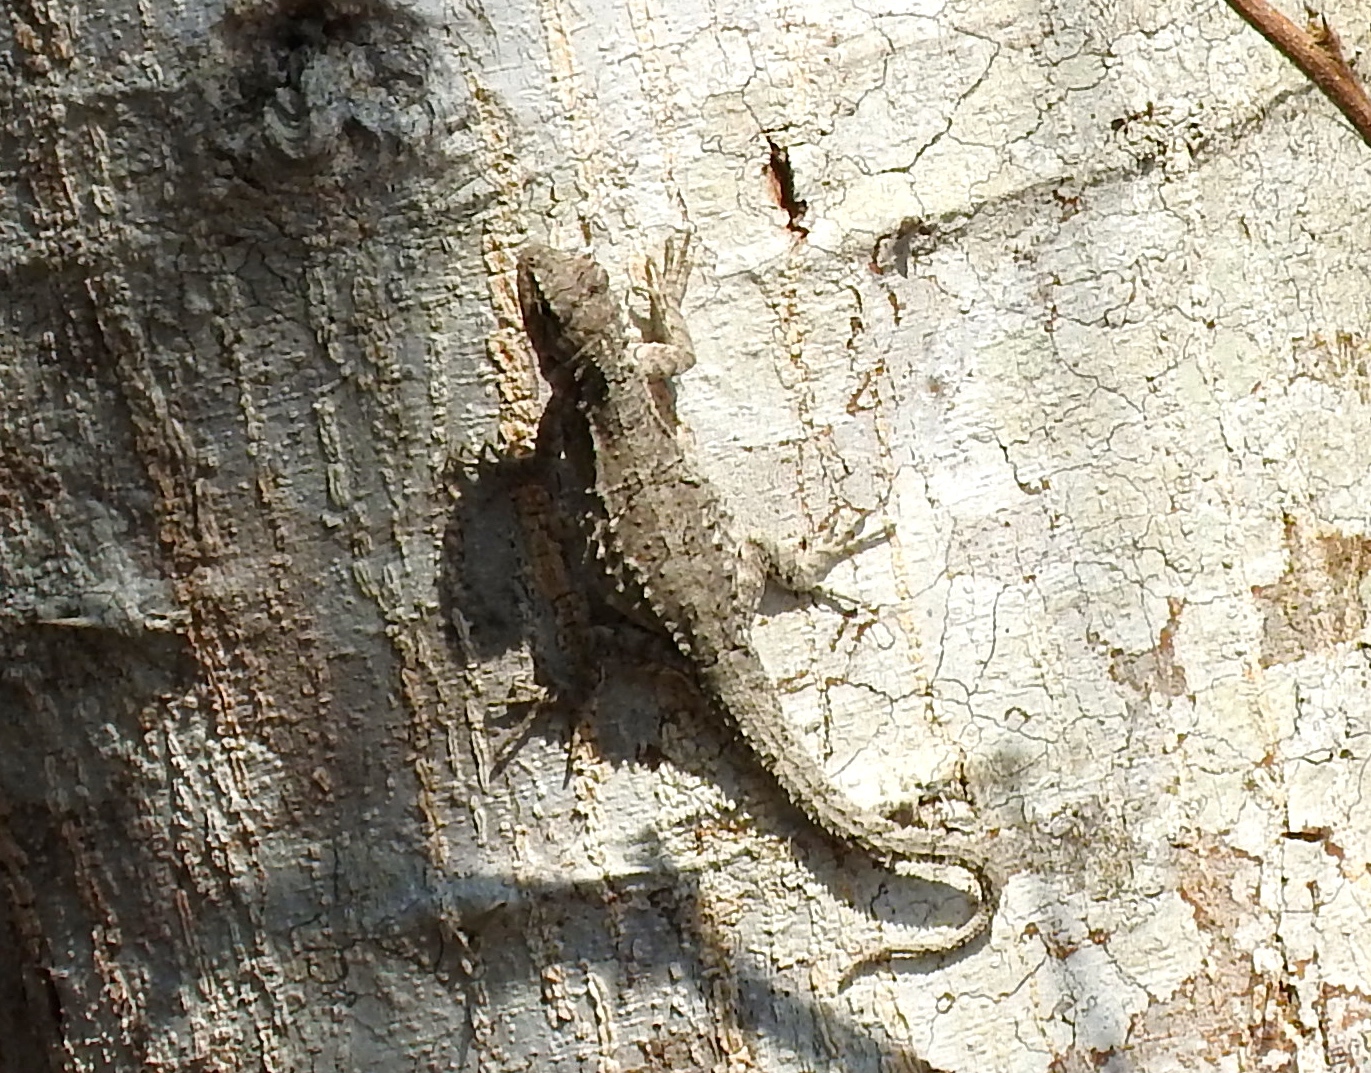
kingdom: Animalia
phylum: Chordata
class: Squamata
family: Phrynosomatidae
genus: Urosaurus
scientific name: Urosaurus bicarinatus
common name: Tropical tree lizard
